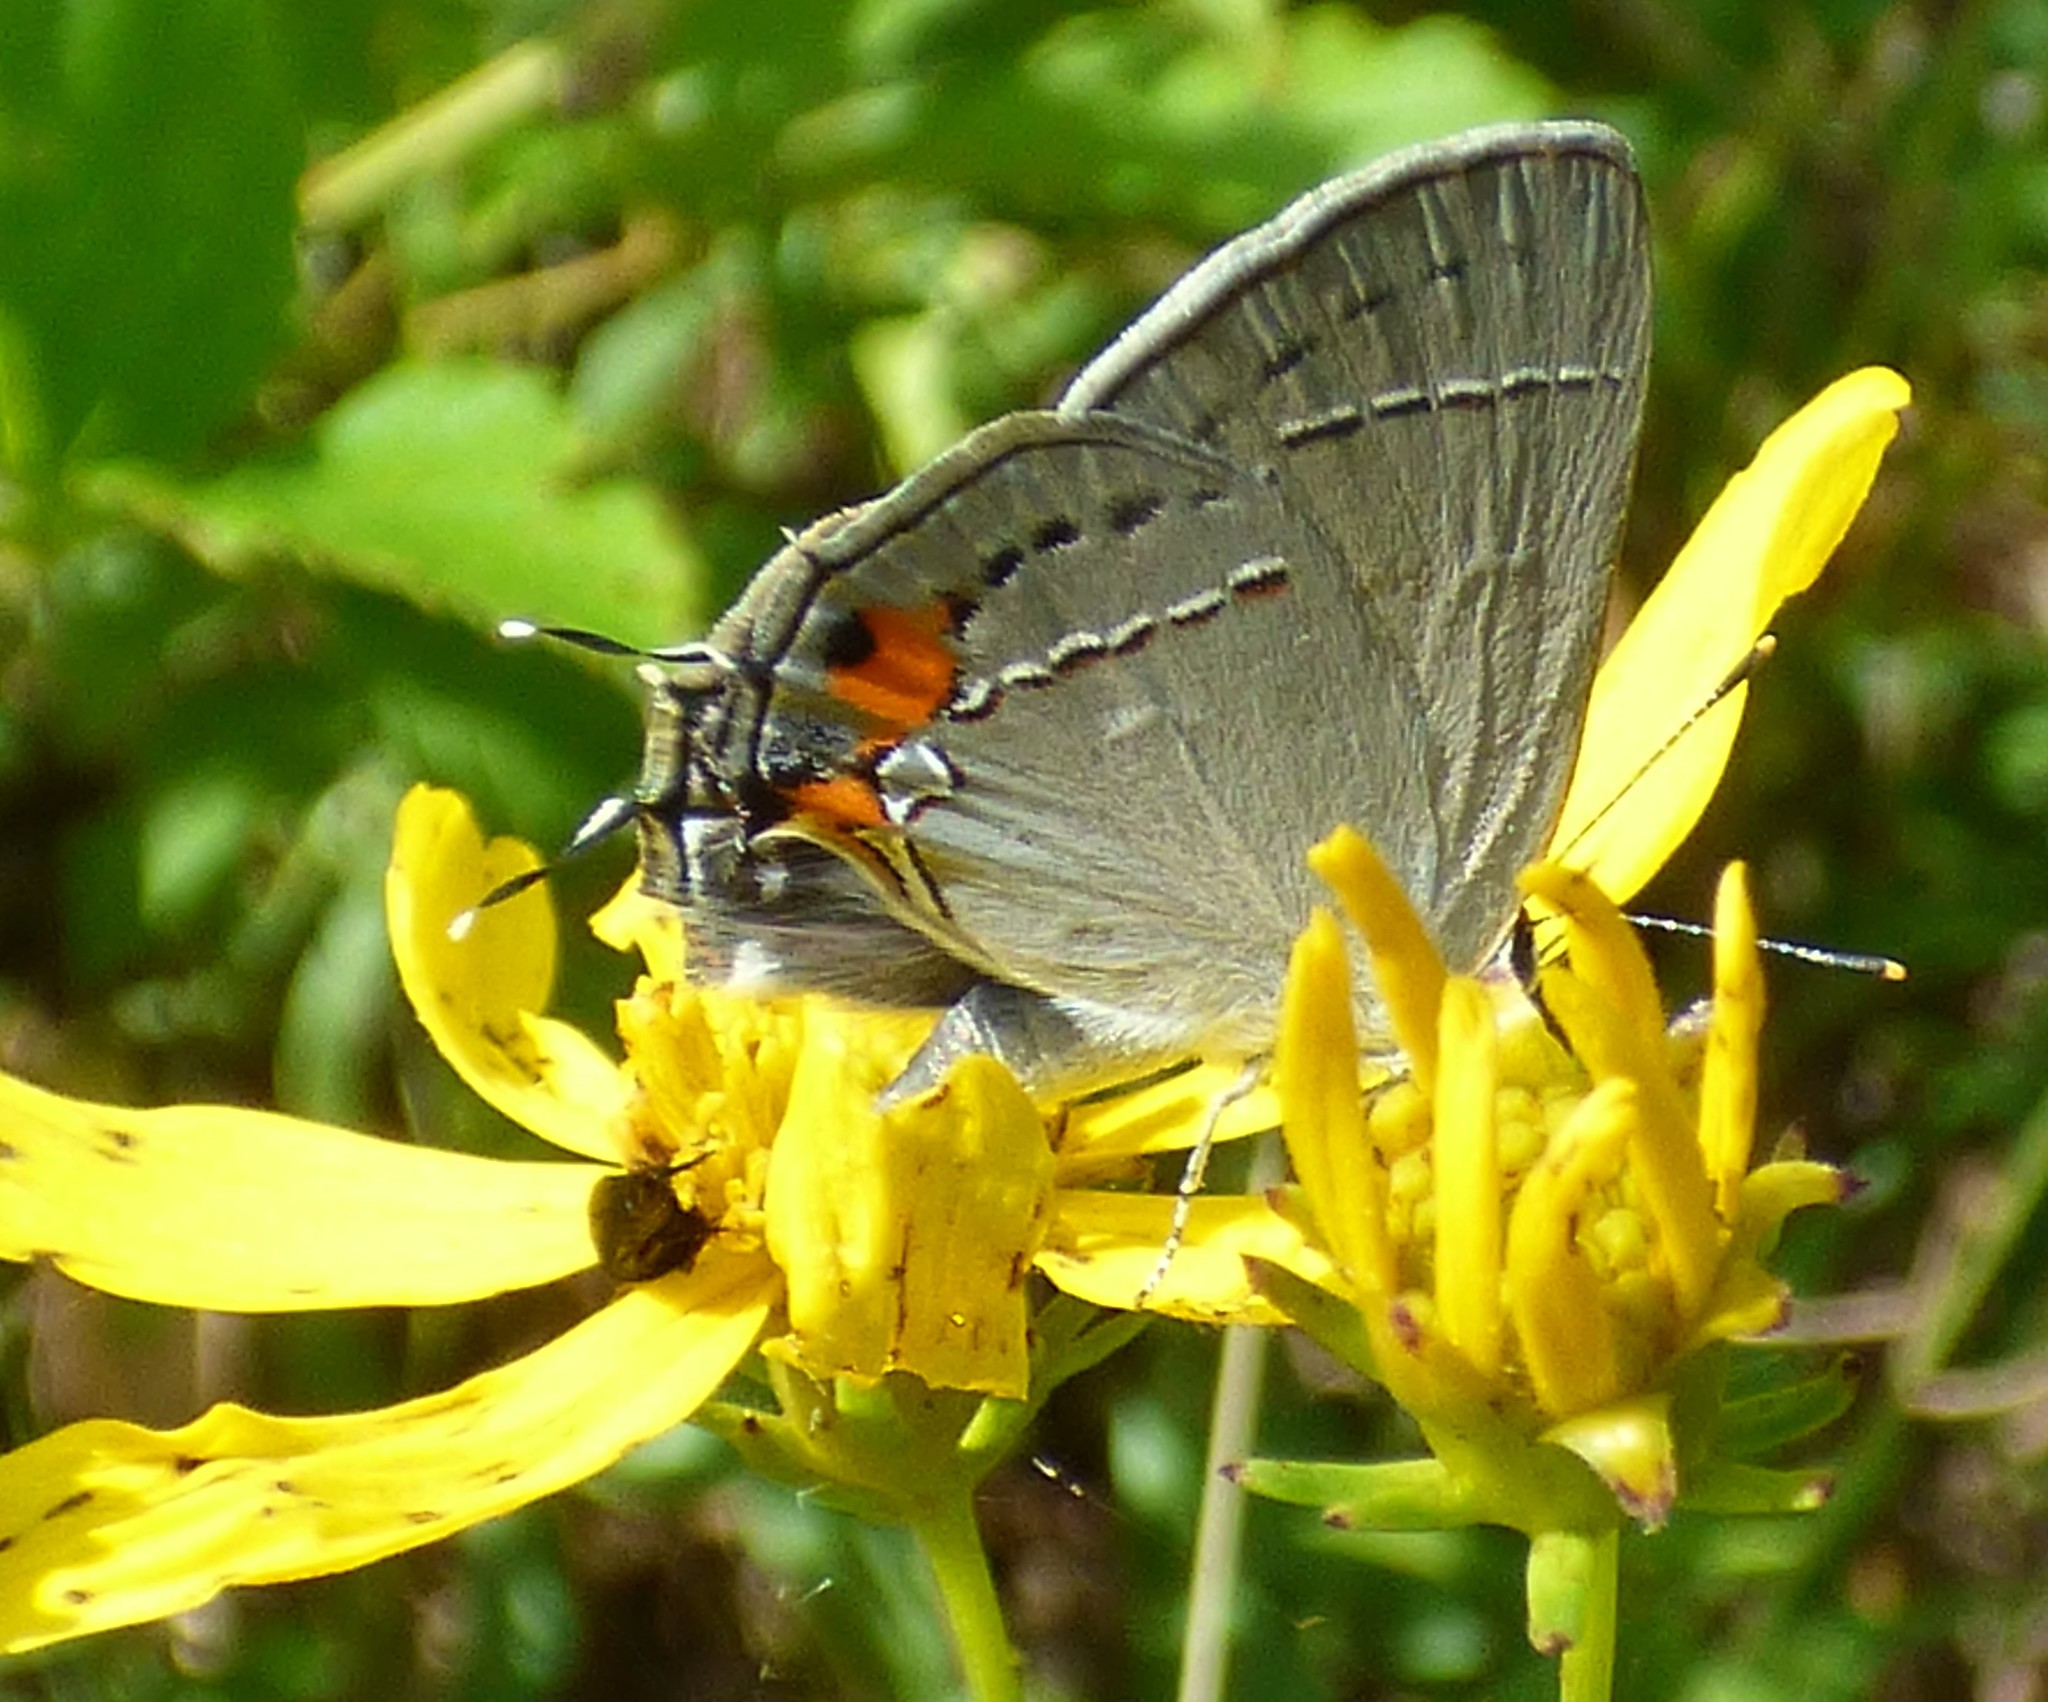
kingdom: Animalia
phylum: Arthropoda
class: Insecta
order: Lepidoptera
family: Lycaenidae
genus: Strymon
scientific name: Strymon melinus
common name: Gray hairstreak
